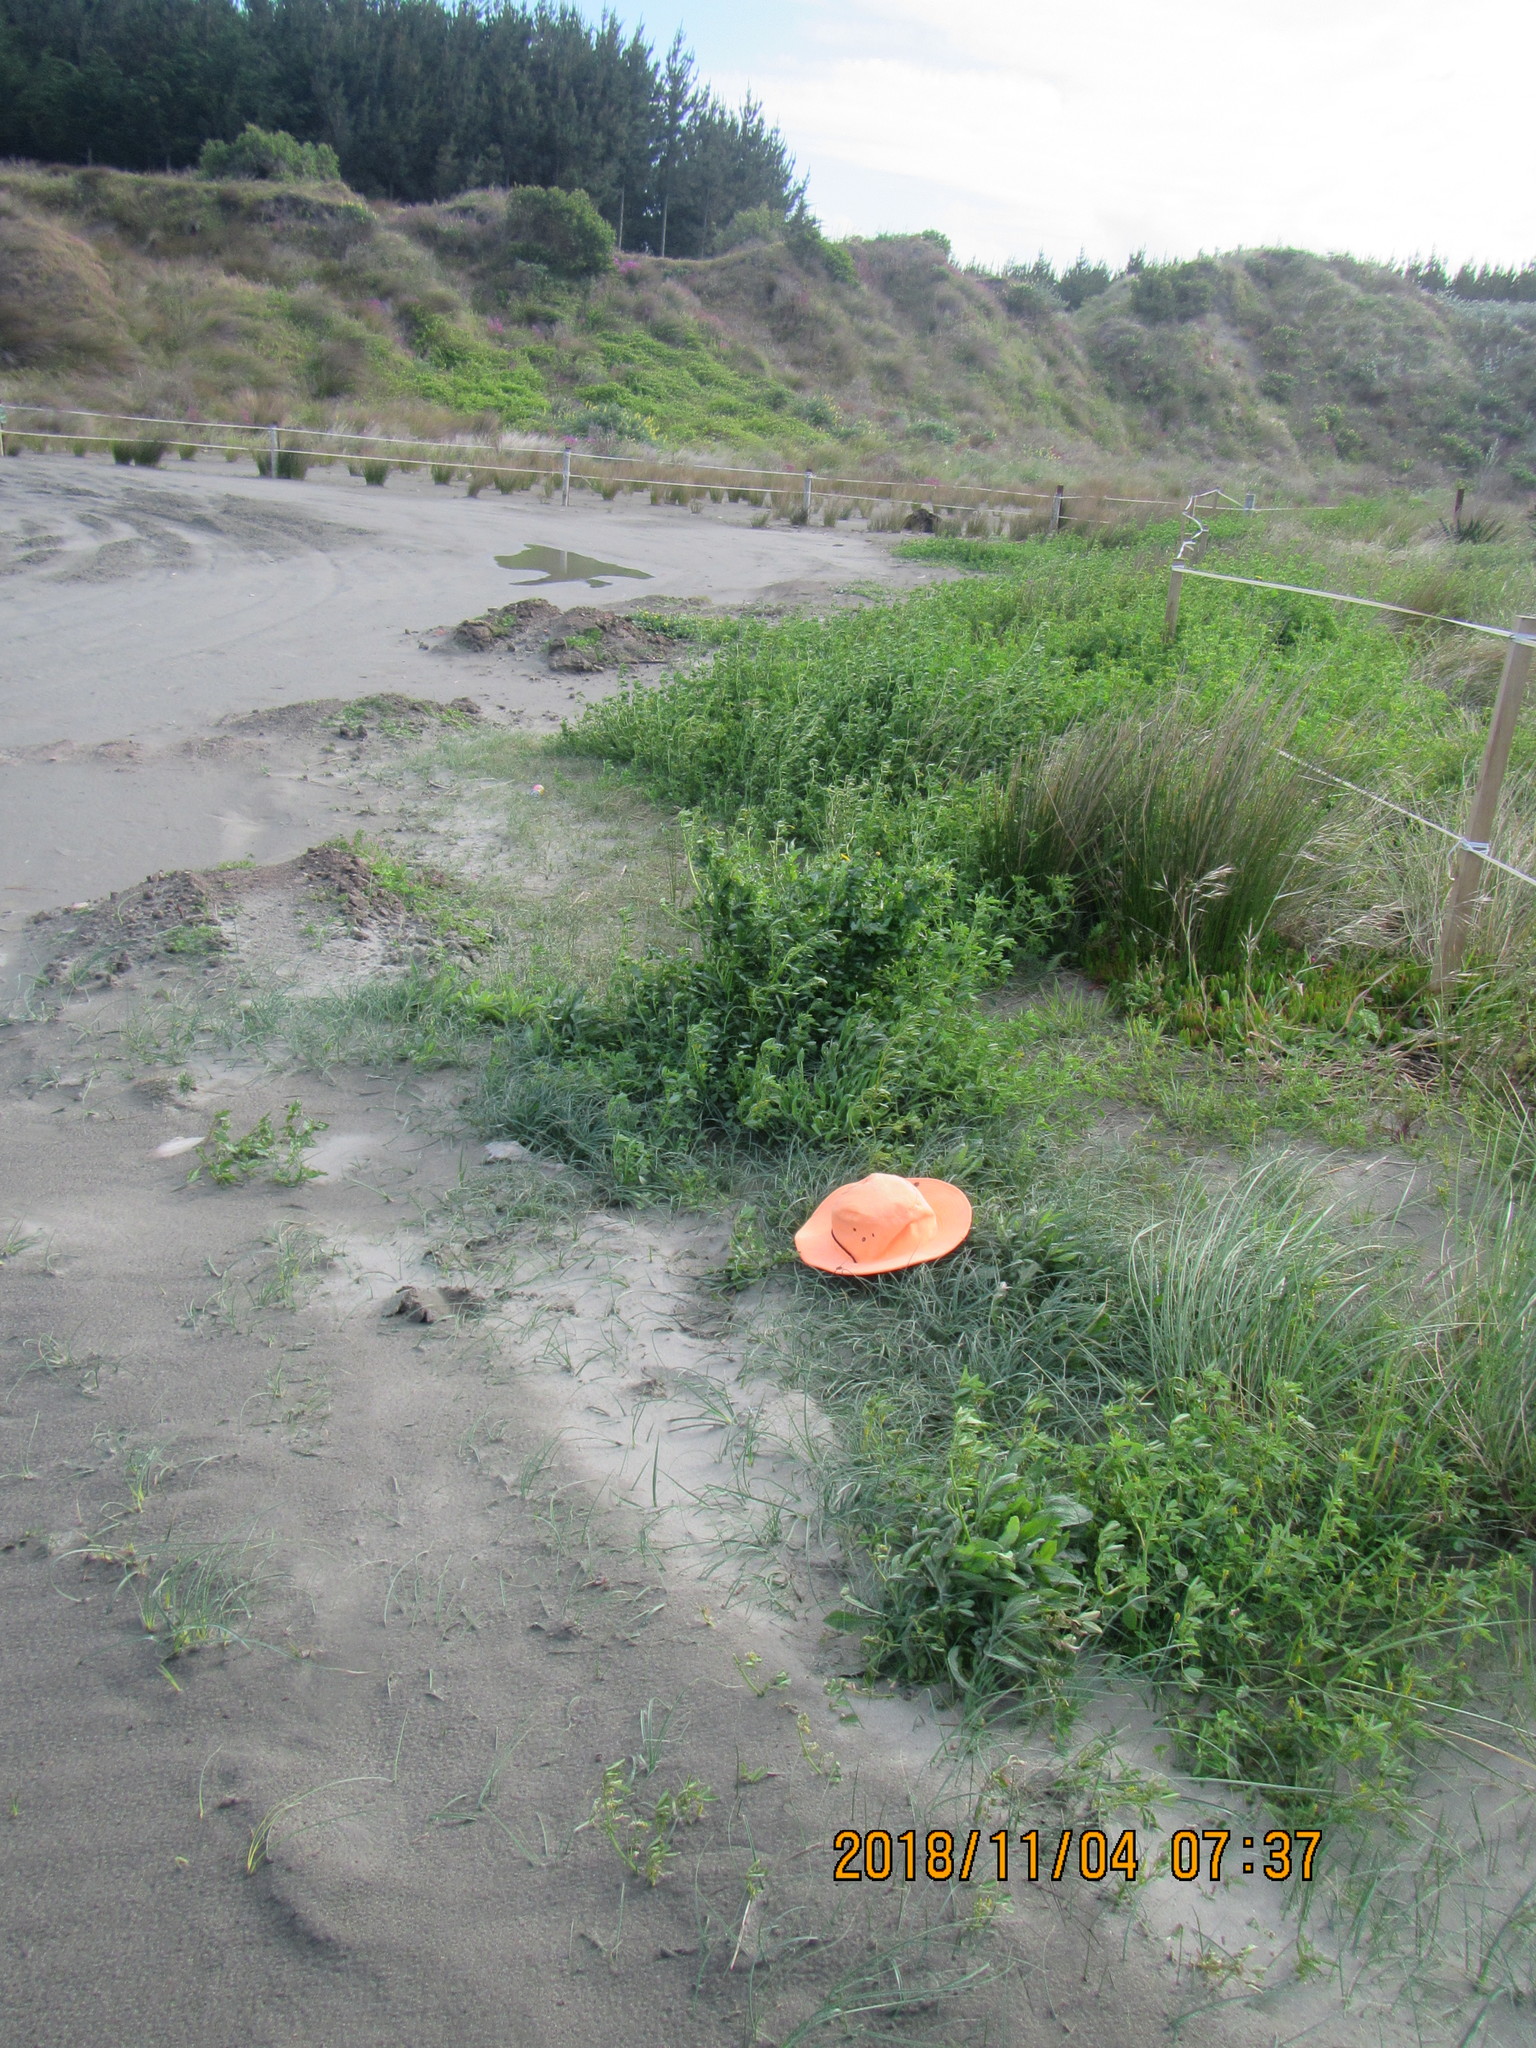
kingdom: Plantae
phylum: Tracheophyta
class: Liliopsida
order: Poales
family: Cyperaceae
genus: Carex
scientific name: Carex pumila
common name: Dwarf sedge
